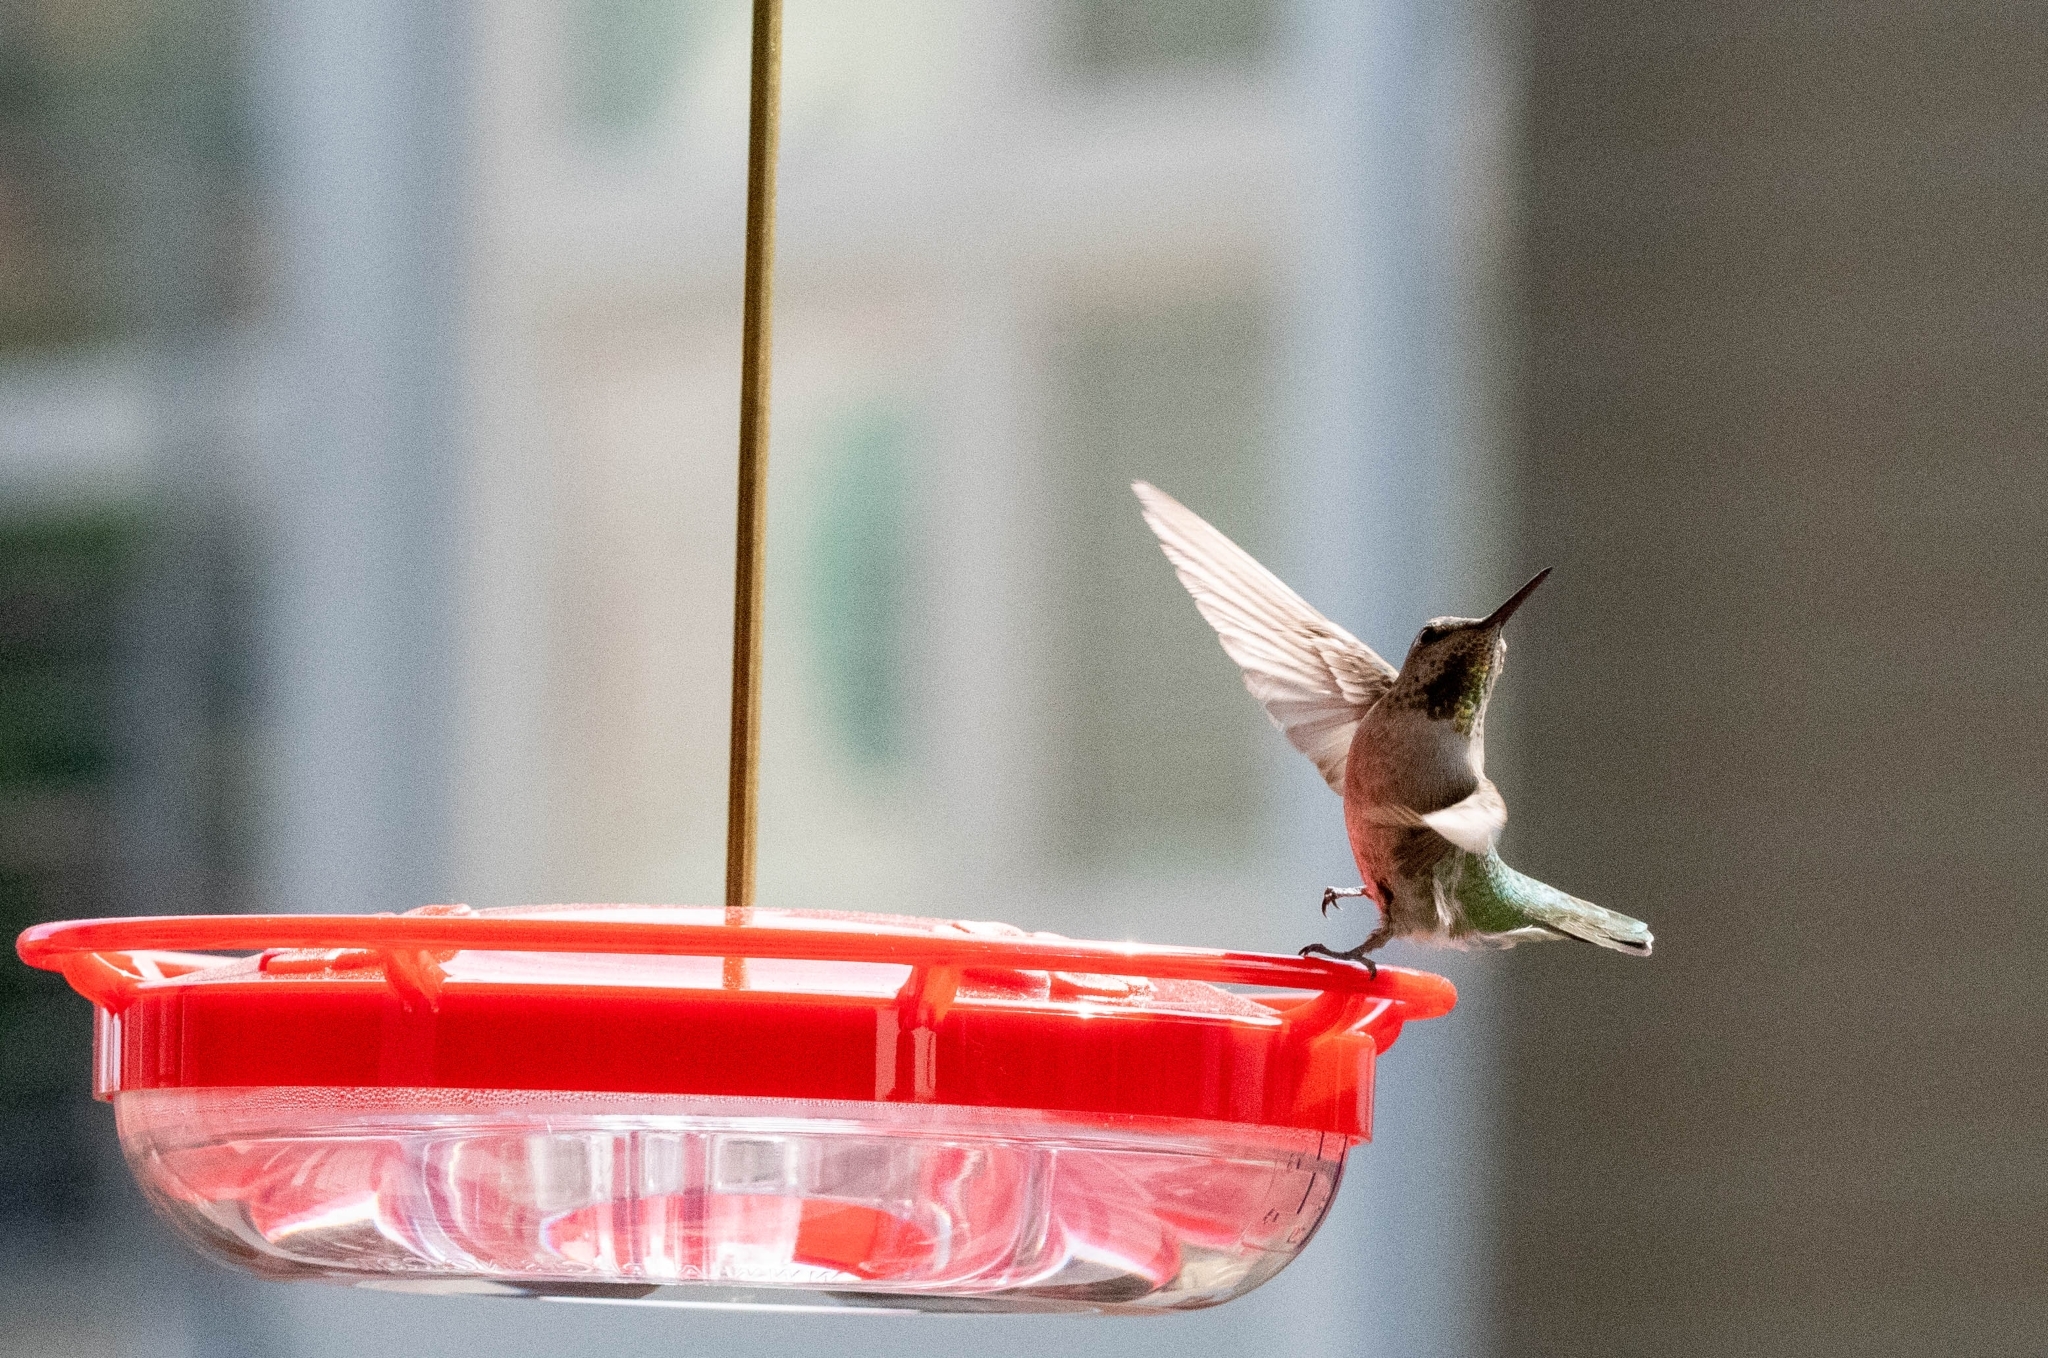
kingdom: Animalia
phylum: Chordata
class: Aves
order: Apodiformes
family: Trochilidae
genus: Calypte
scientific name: Calypte anna
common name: Anna's hummingbird
